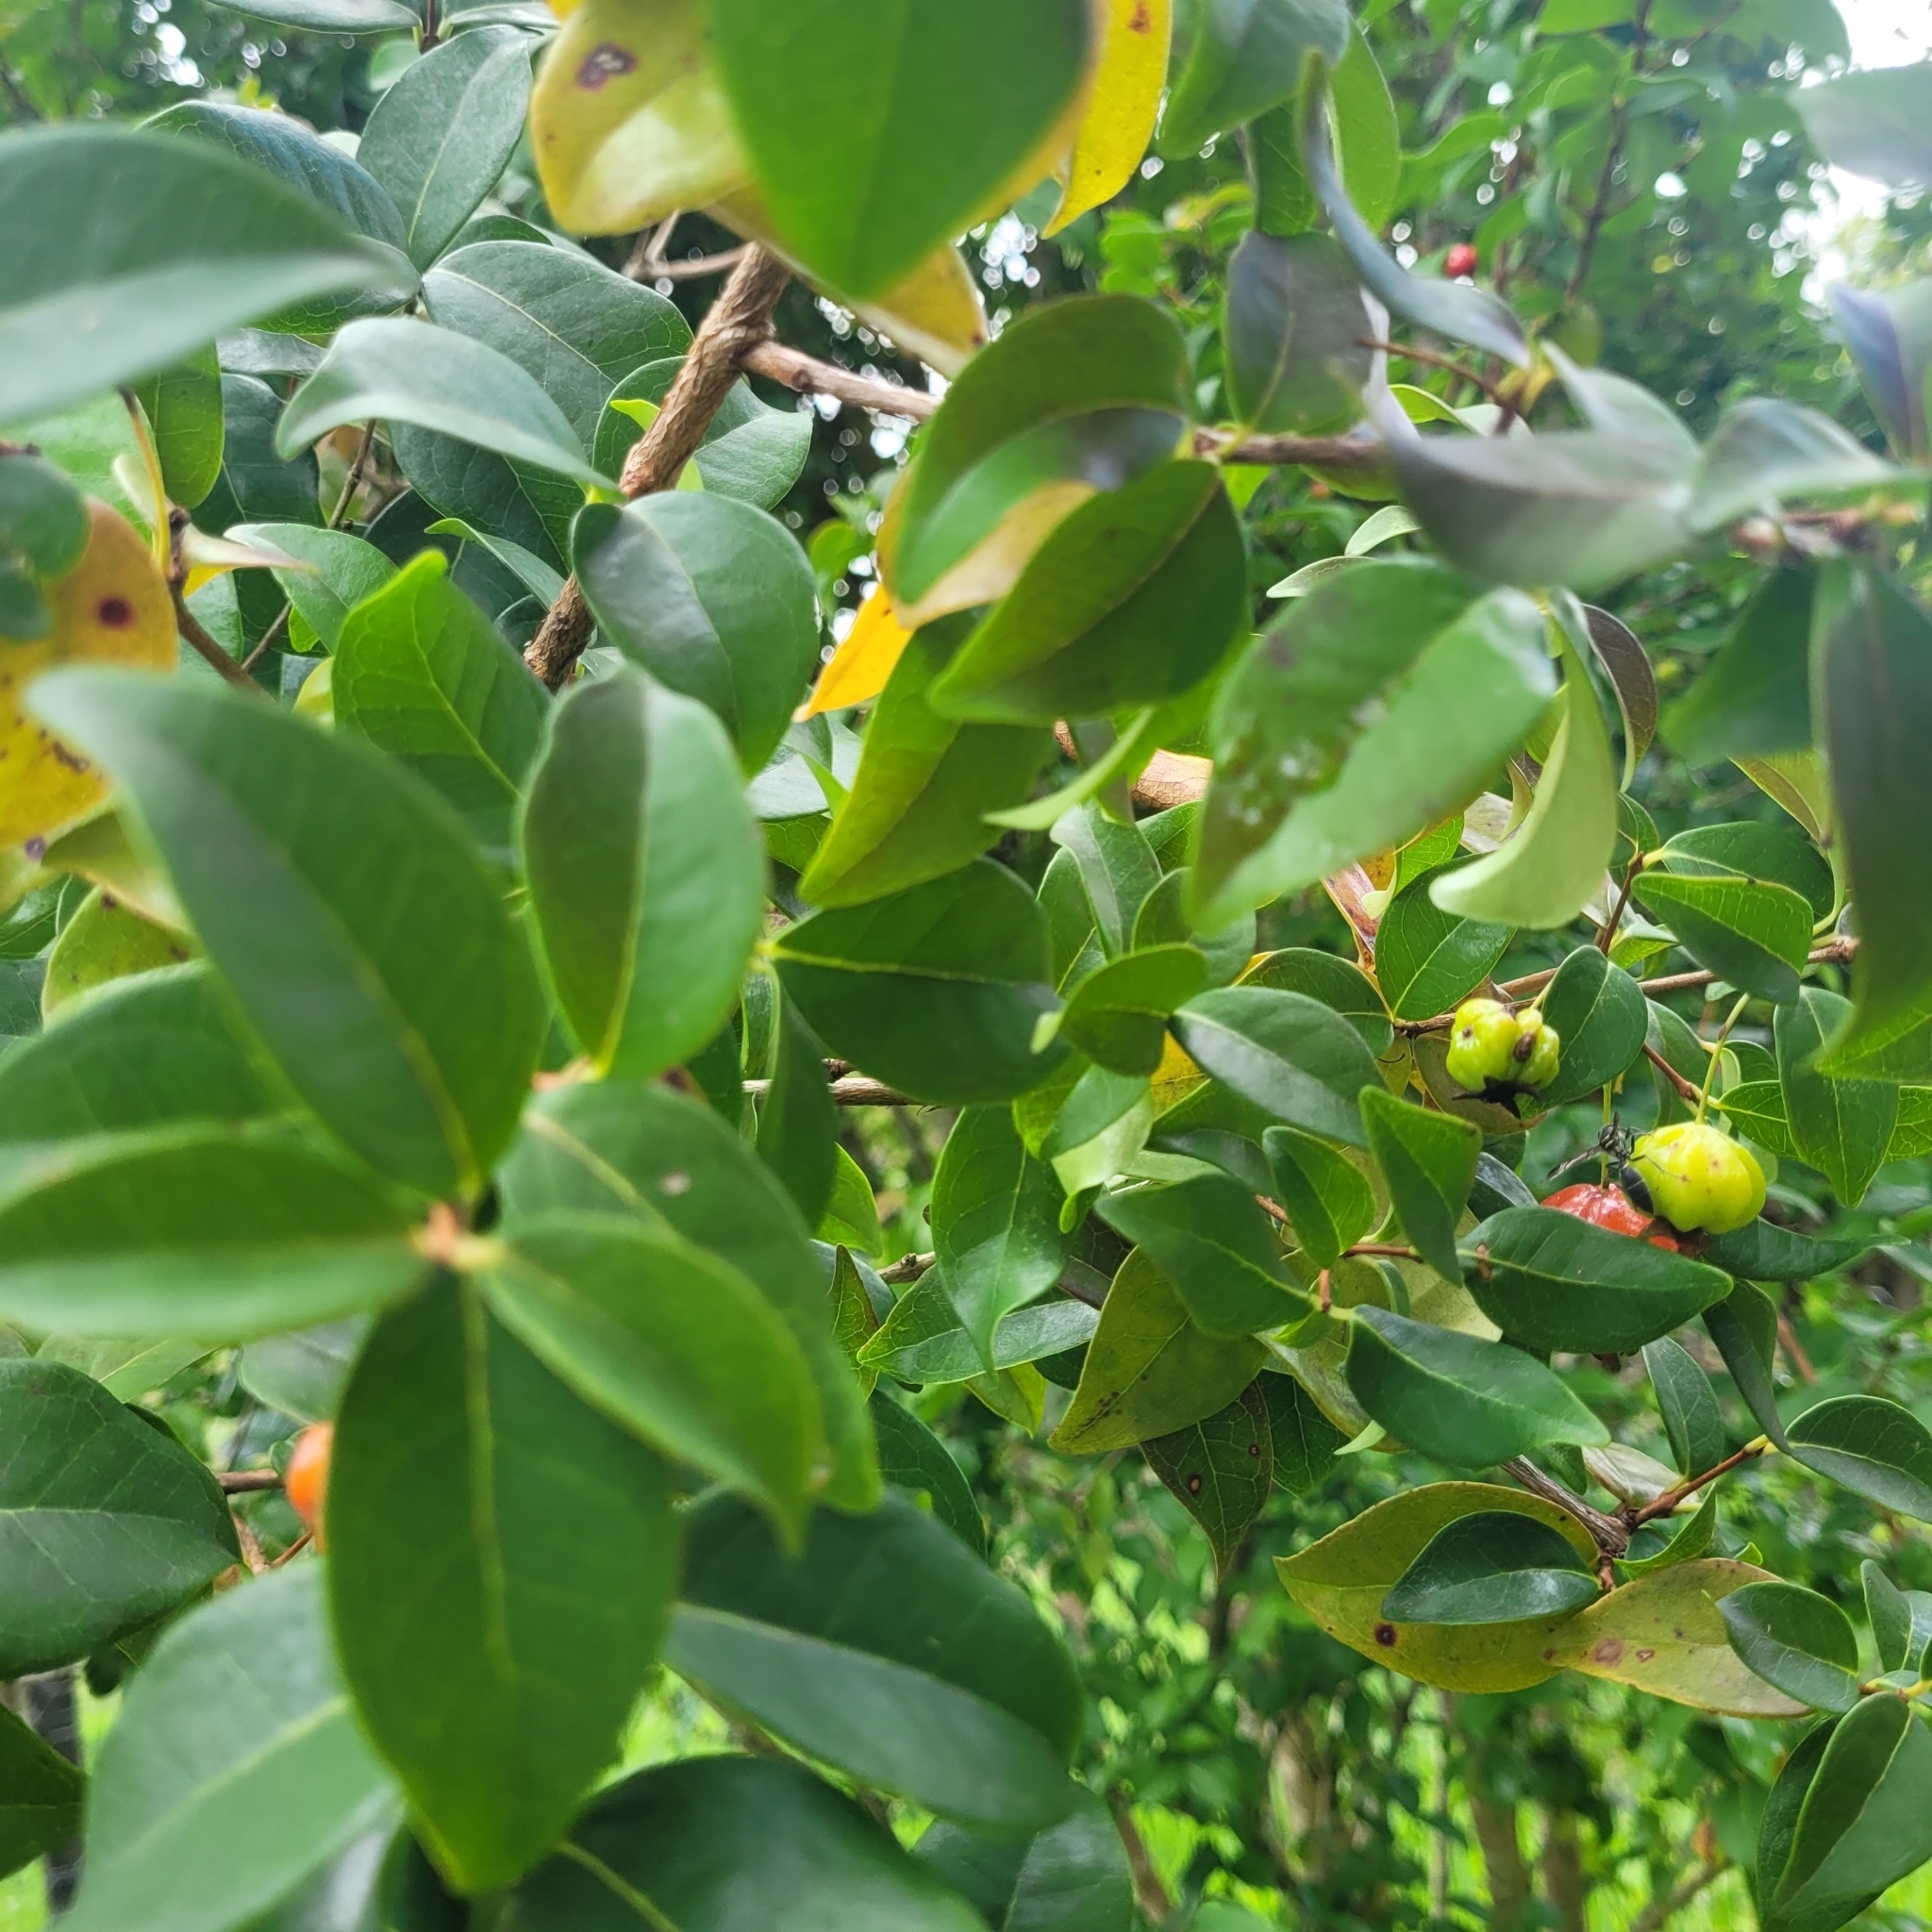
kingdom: Plantae
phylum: Tracheophyta
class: Magnoliopsida
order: Myrtales
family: Myrtaceae
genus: Eugenia
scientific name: Eugenia uniflora
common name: Surinam cherry
